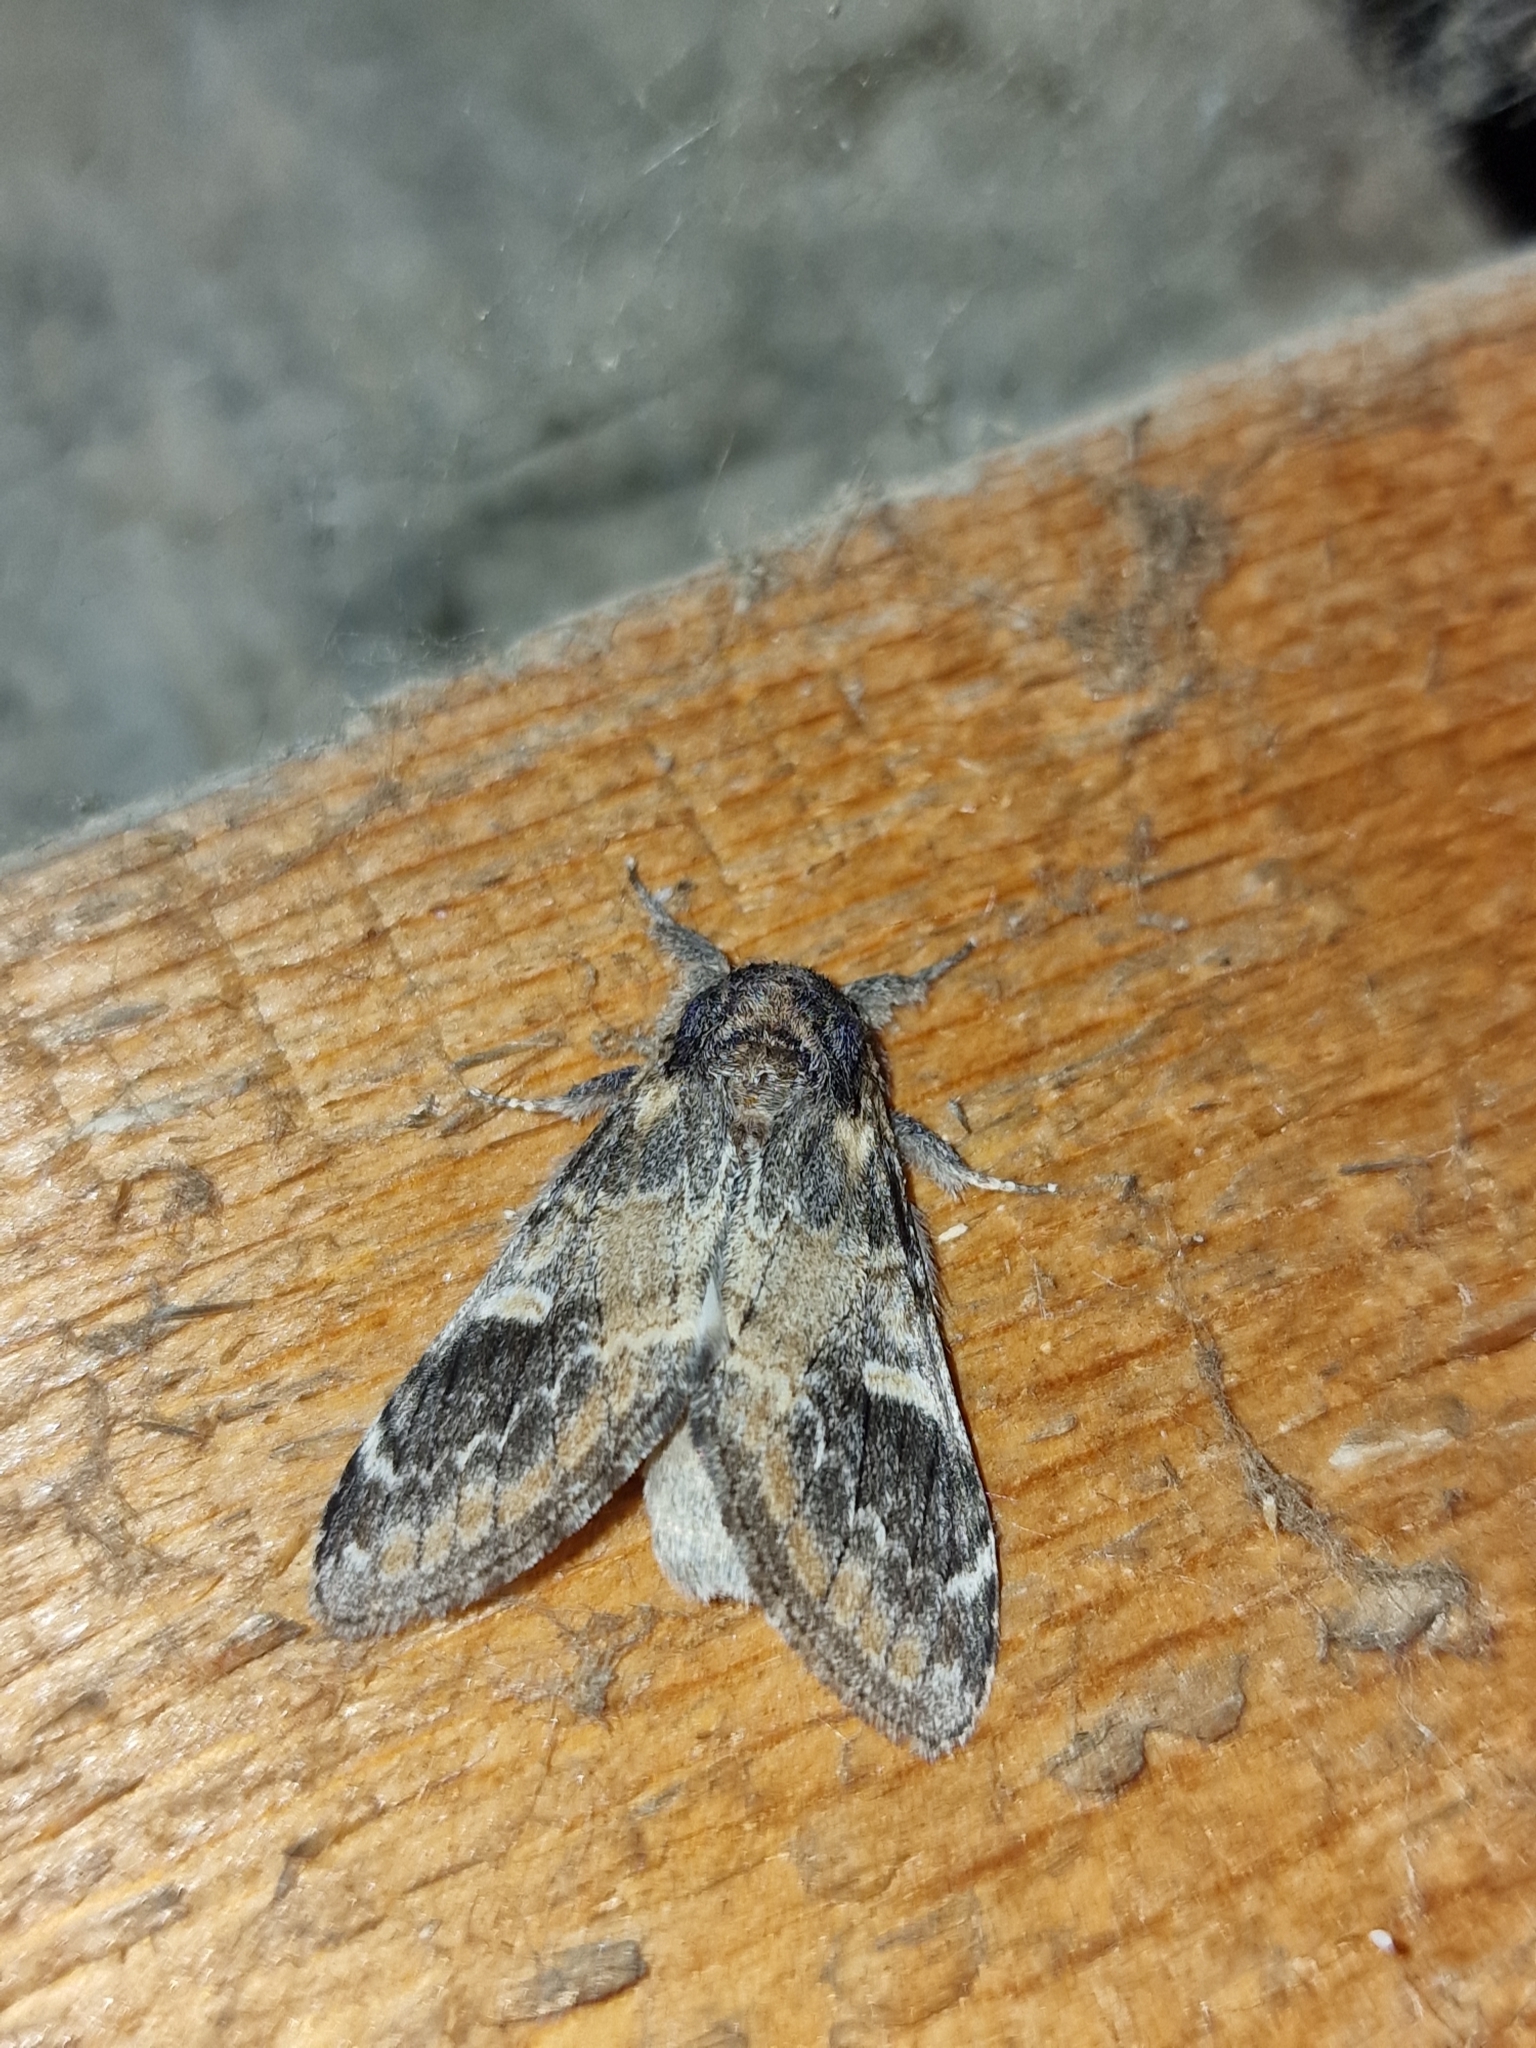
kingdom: Animalia
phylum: Arthropoda
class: Insecta
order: Lepidoptera
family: Notodontidae
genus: Notodonta
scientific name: Notodonta tritophus
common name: Three-humped prominent
